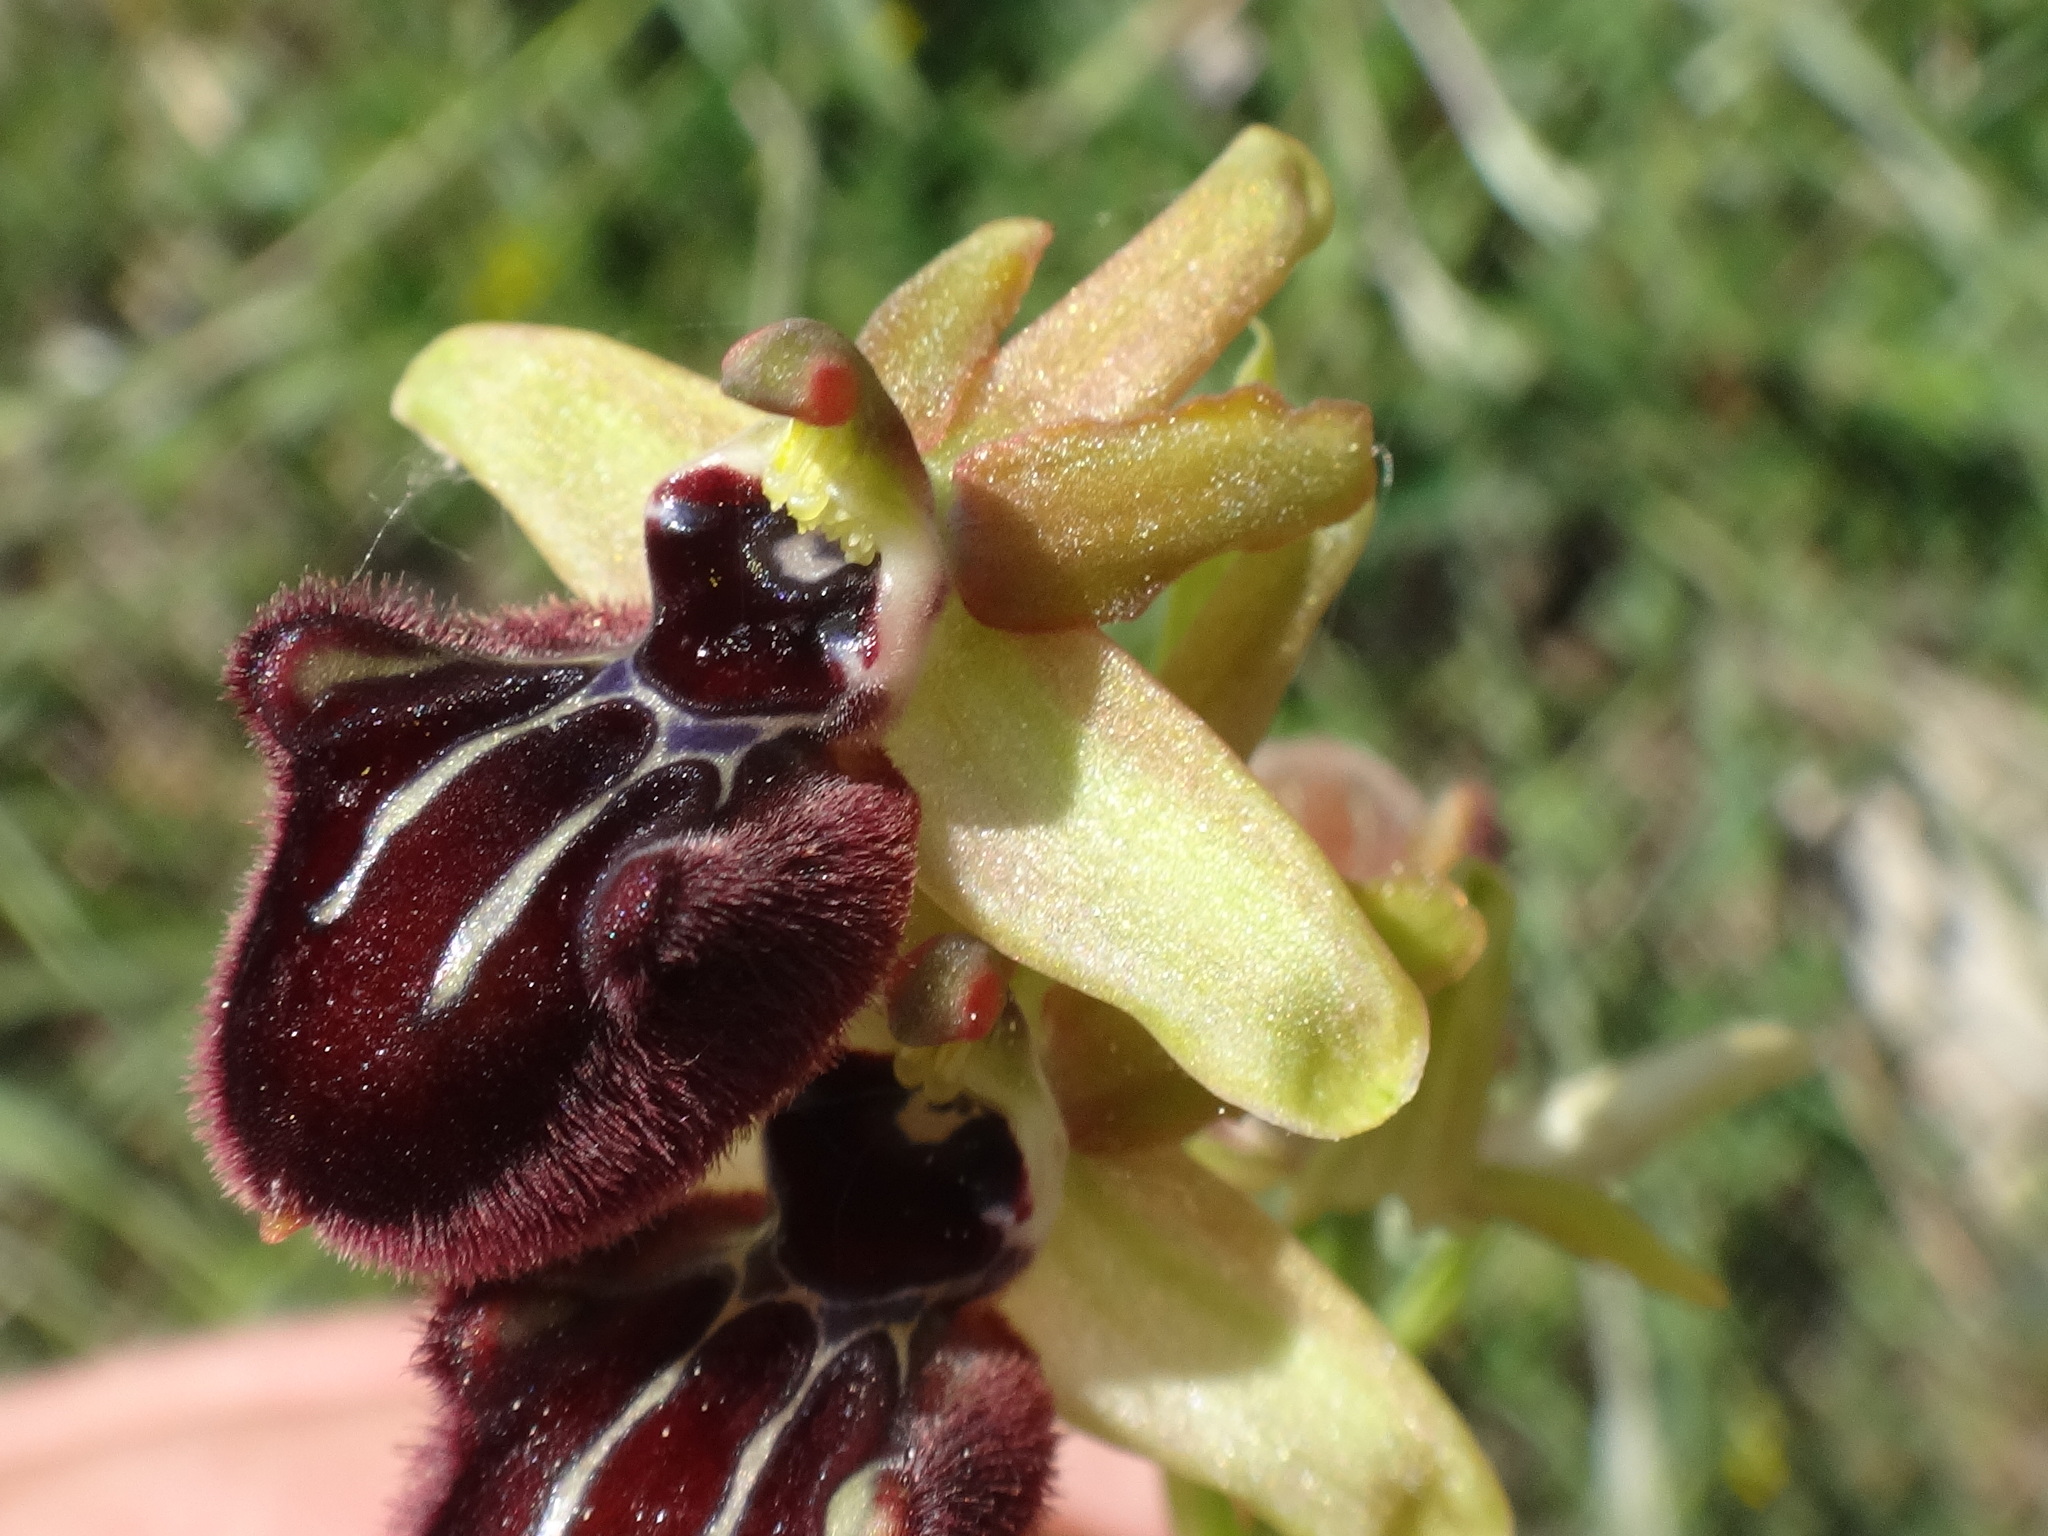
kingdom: Plantae
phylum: Tracheophyta
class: Liliopsida
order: Asparagales
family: Orchidaceae
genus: Ophrys
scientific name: Ophrys sphegodes
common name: Early spider-orchid
